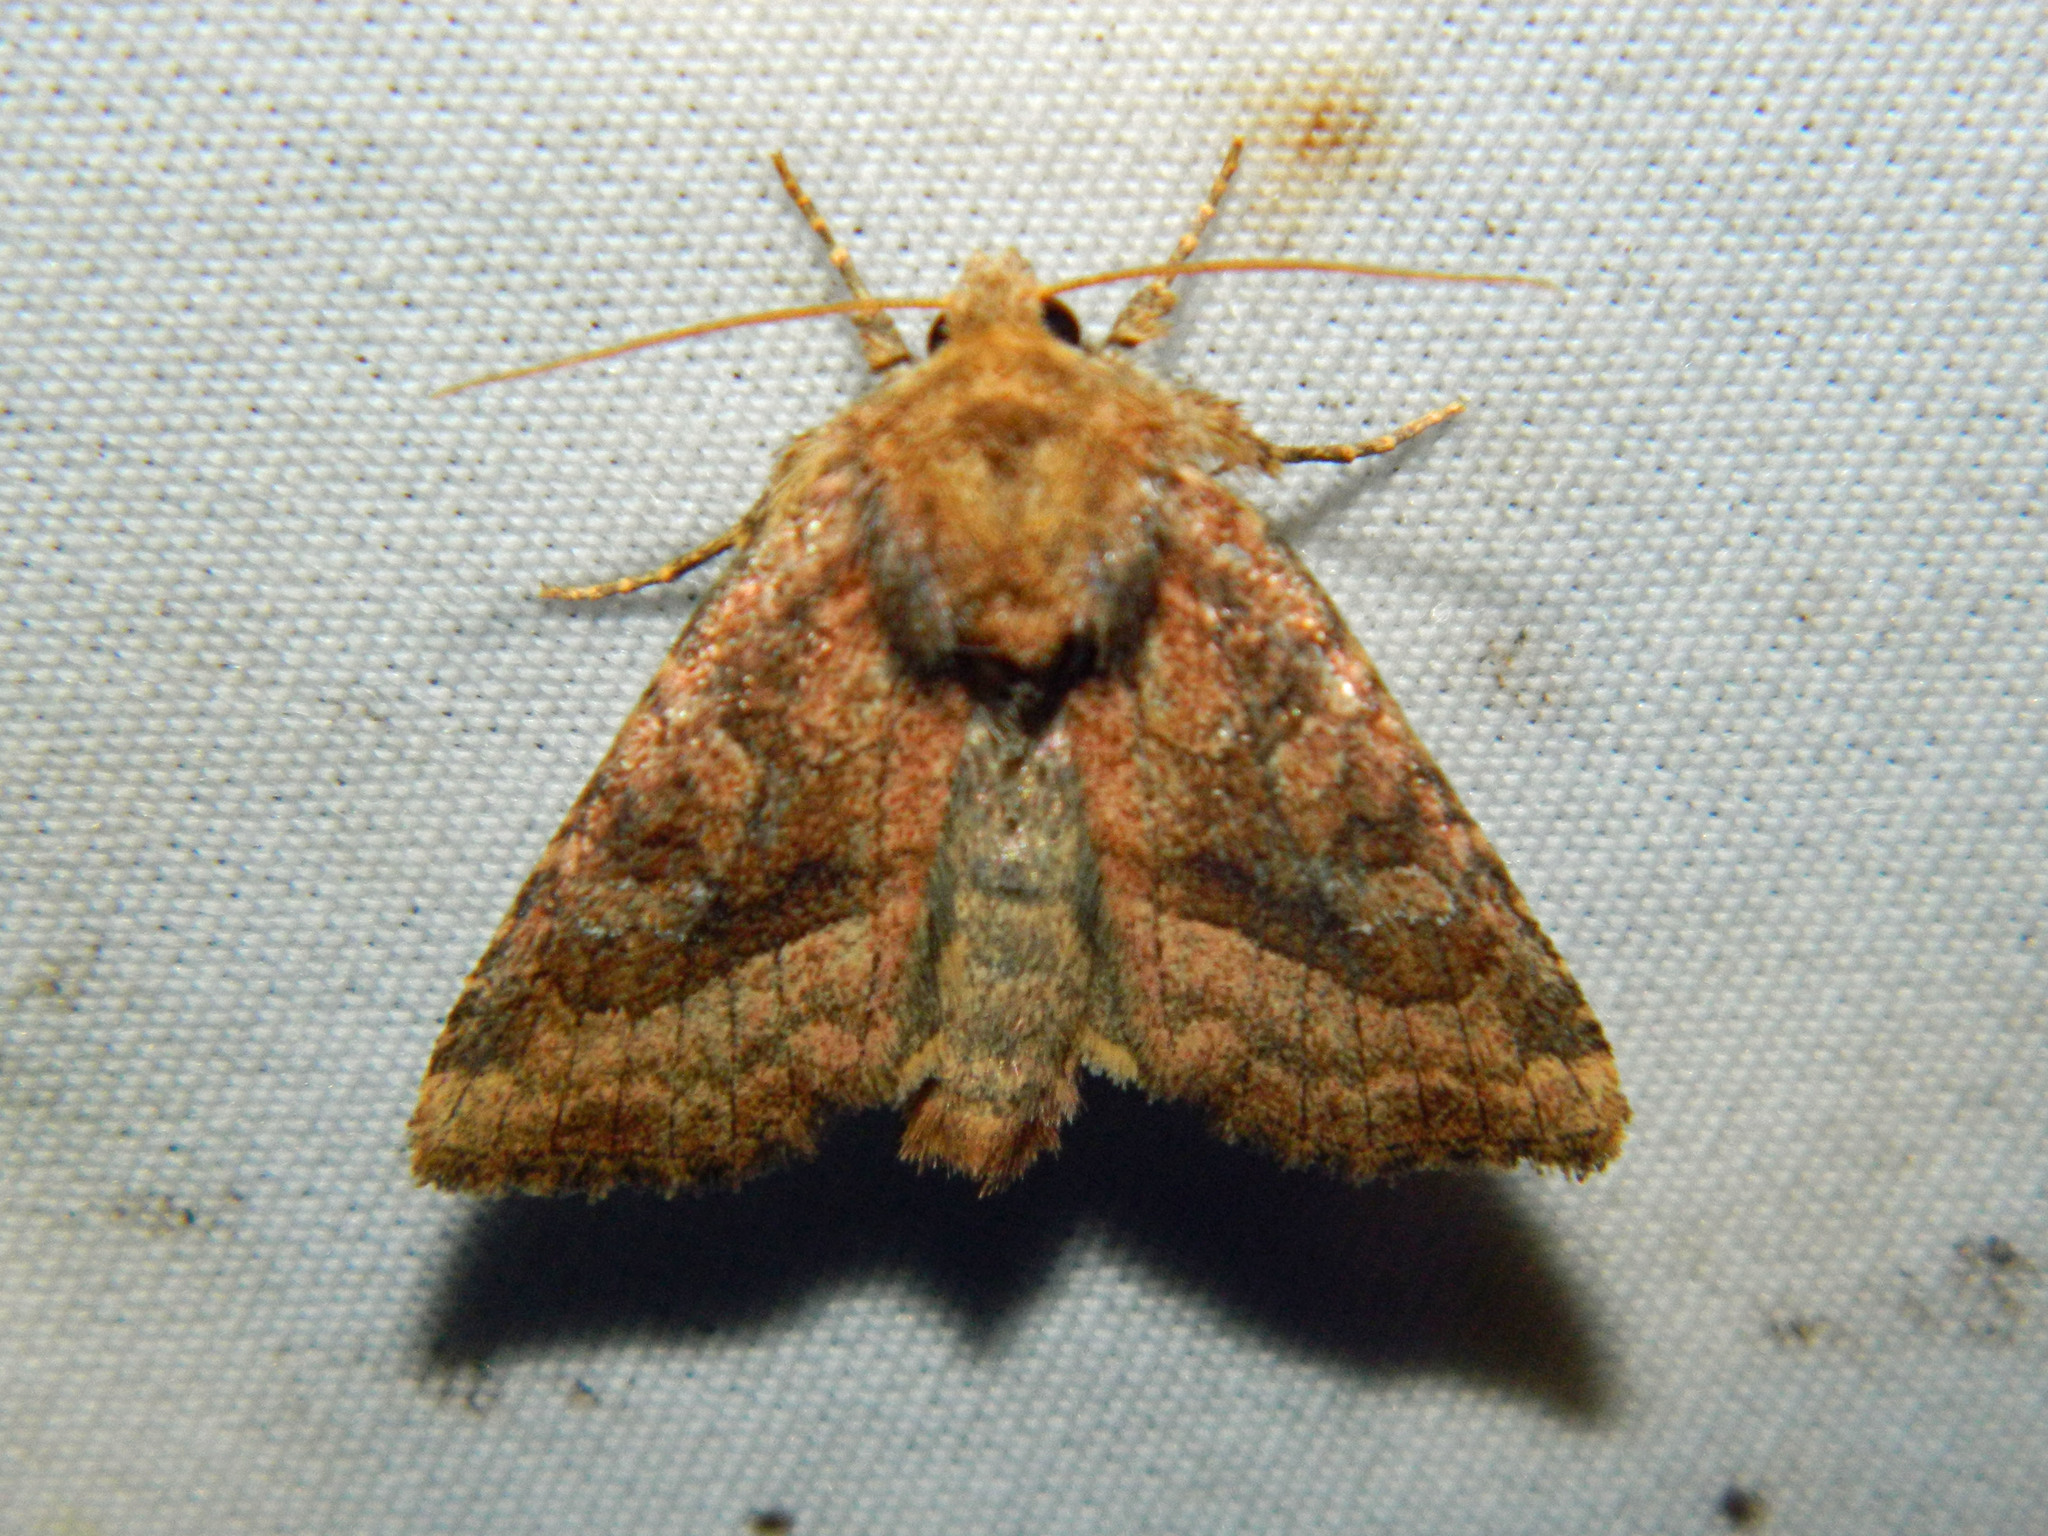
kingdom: Animalia
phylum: Arthropoda
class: Insecta
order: Lepidoptera
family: Noctuidae
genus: Lacinipolia
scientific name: Lacinipolia lorea
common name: Bridled arches moth
